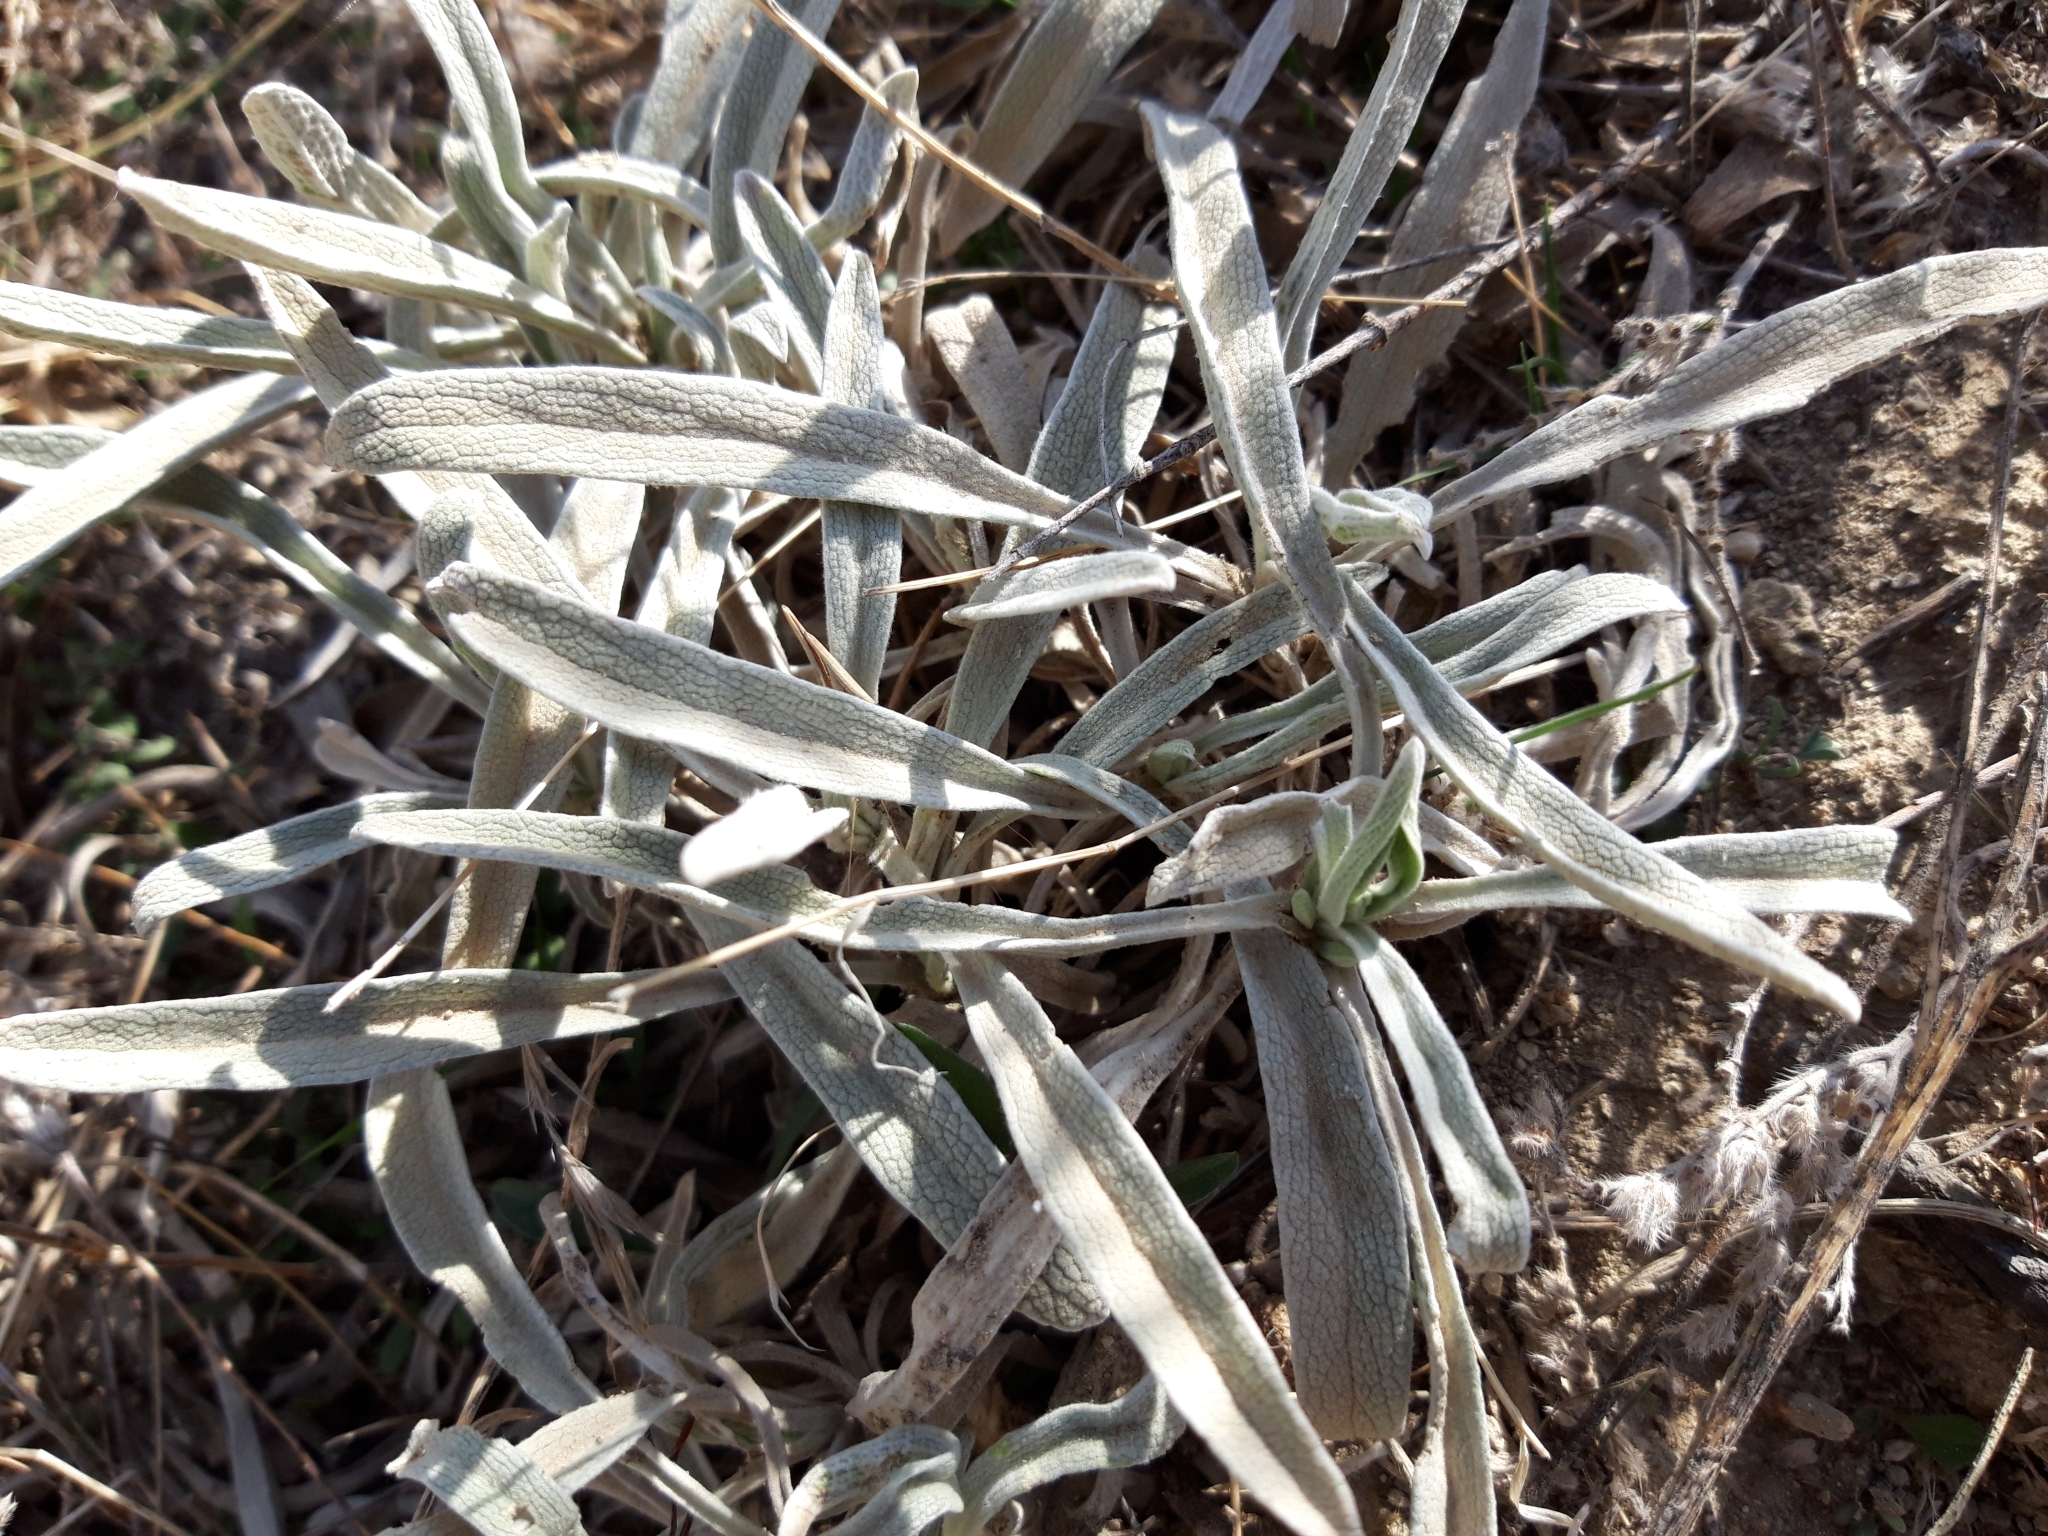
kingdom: Plantae
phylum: Tracheophyta
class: Magnoliopsida
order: Lamiales
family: Lamiaceae
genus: Phlomis
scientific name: Phlomis lychnitis
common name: Lampwickplant
